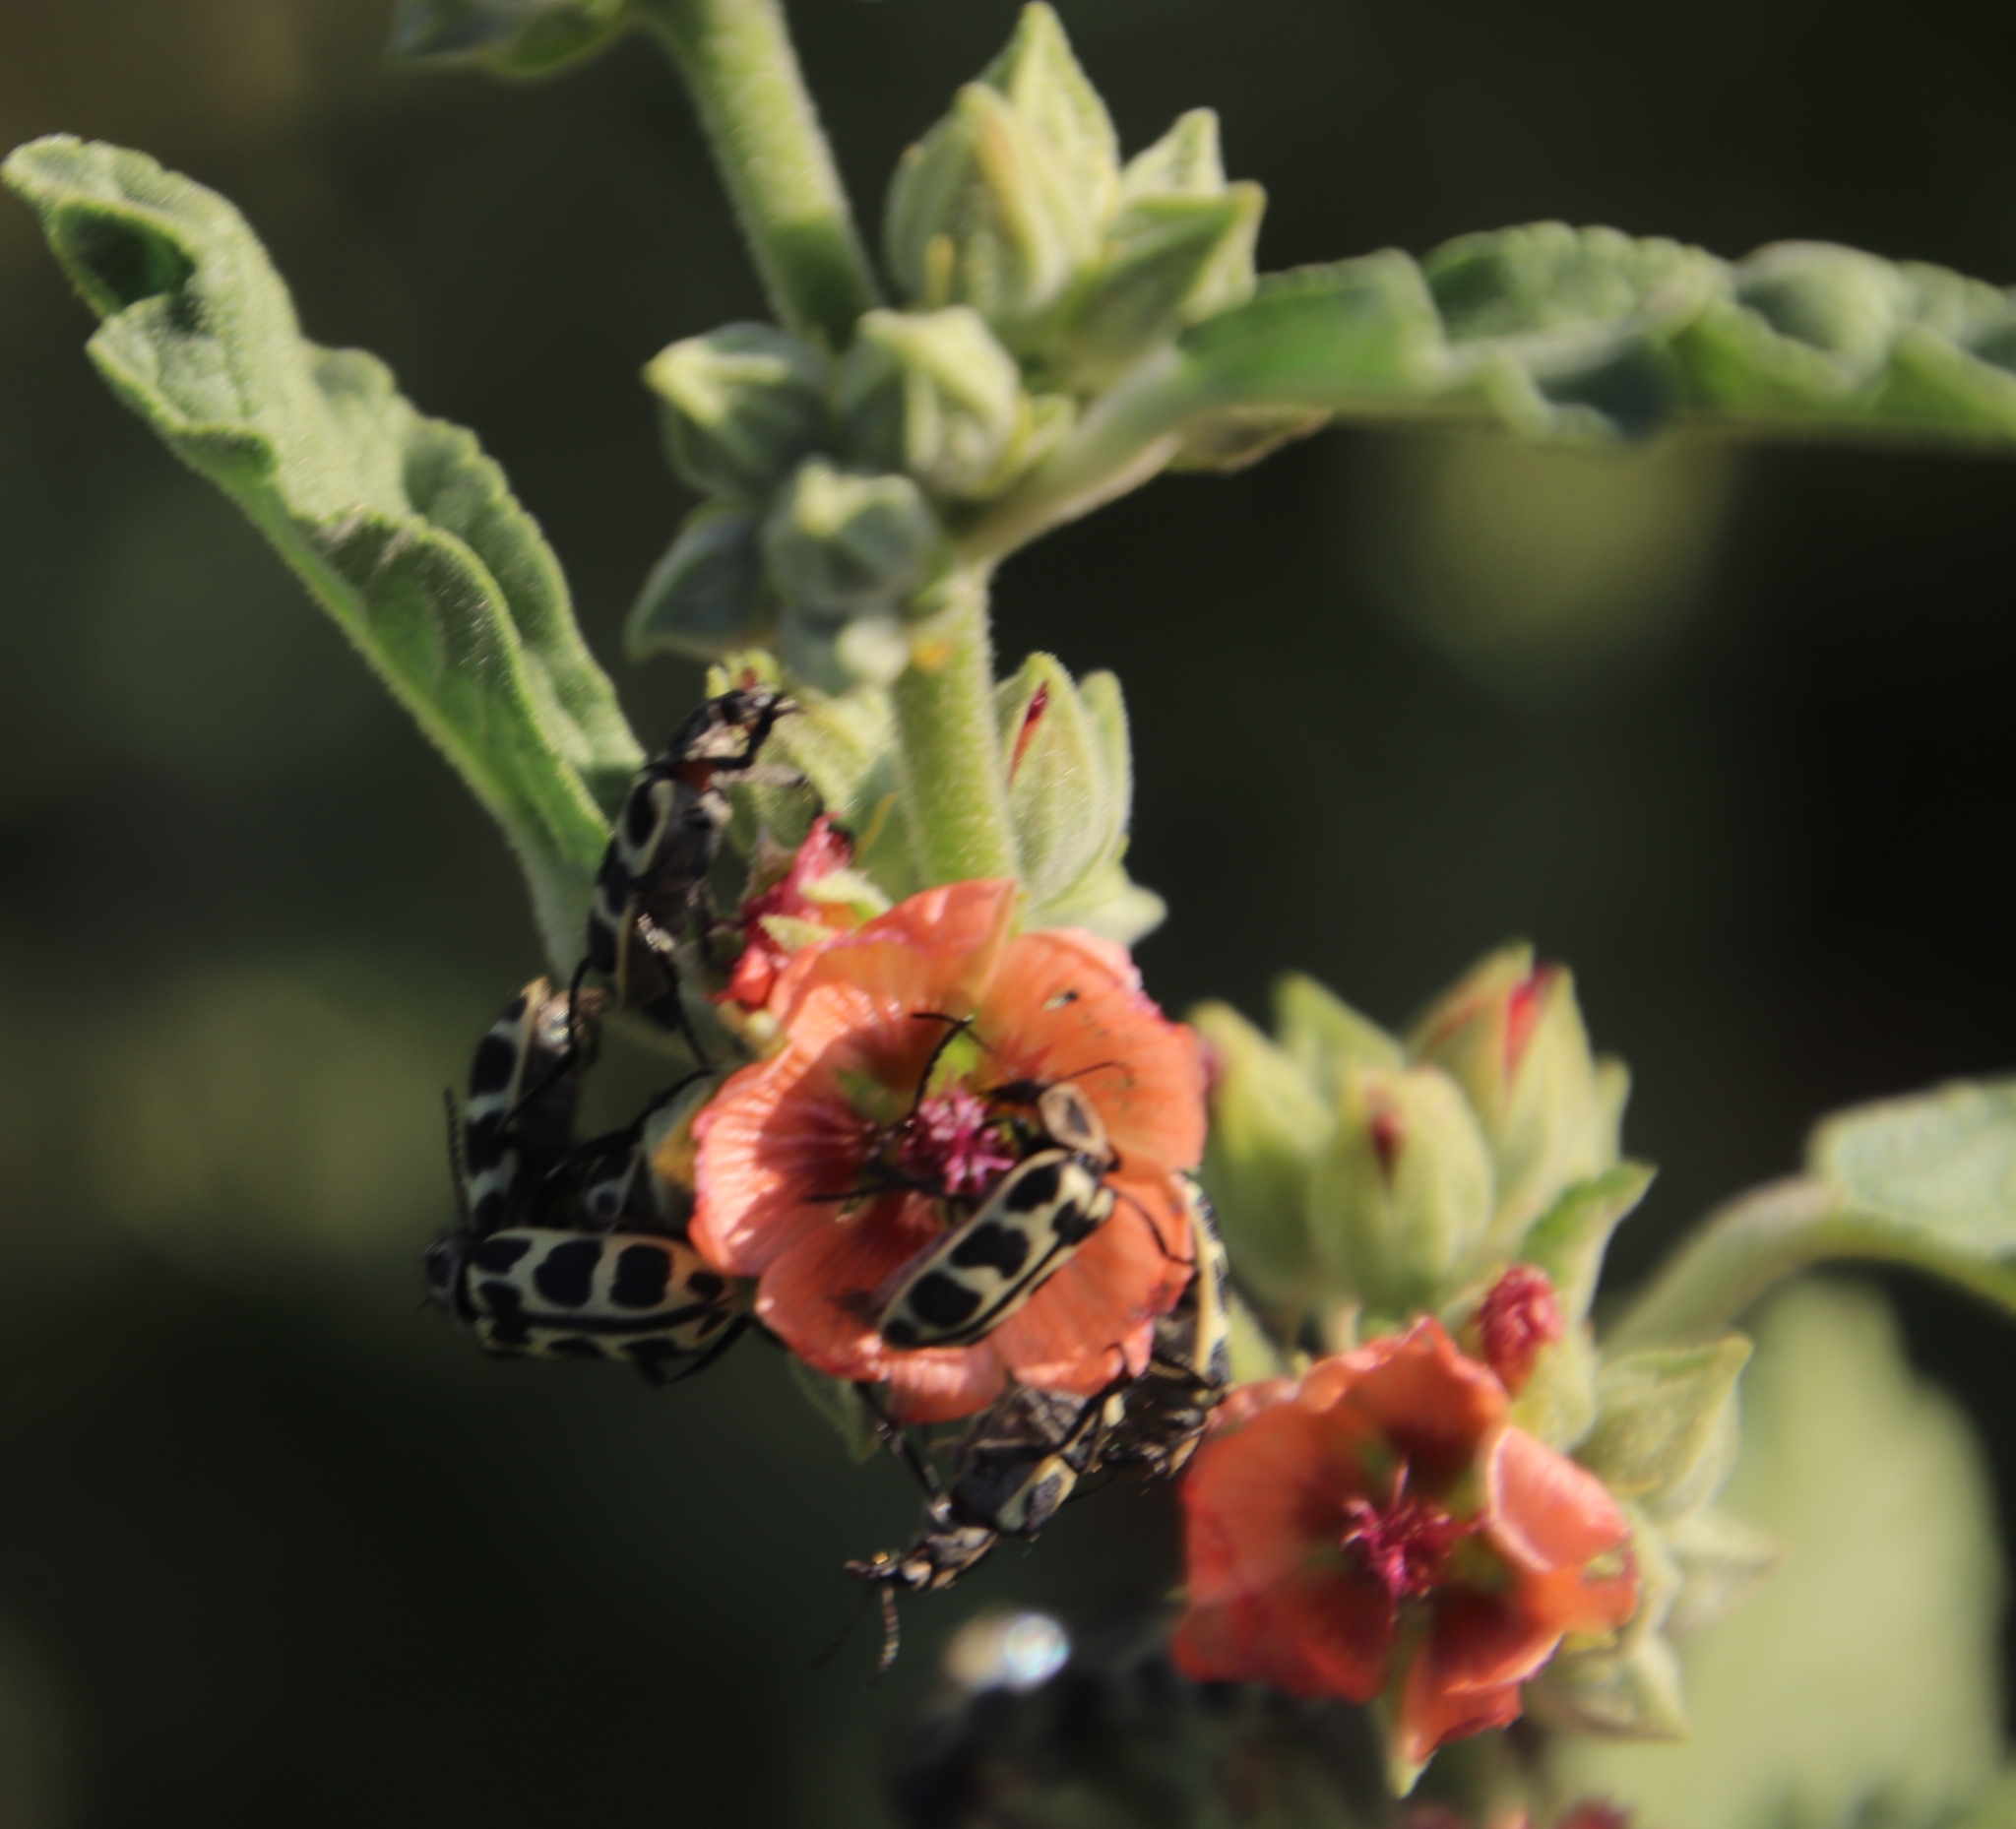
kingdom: Plantae
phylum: Tracheophyta
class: Magnoliopsida
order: Malvales
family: Malvaceae
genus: Sphaeralcea
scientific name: Sphaeralcea bonariensis
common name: Latin globemallow
